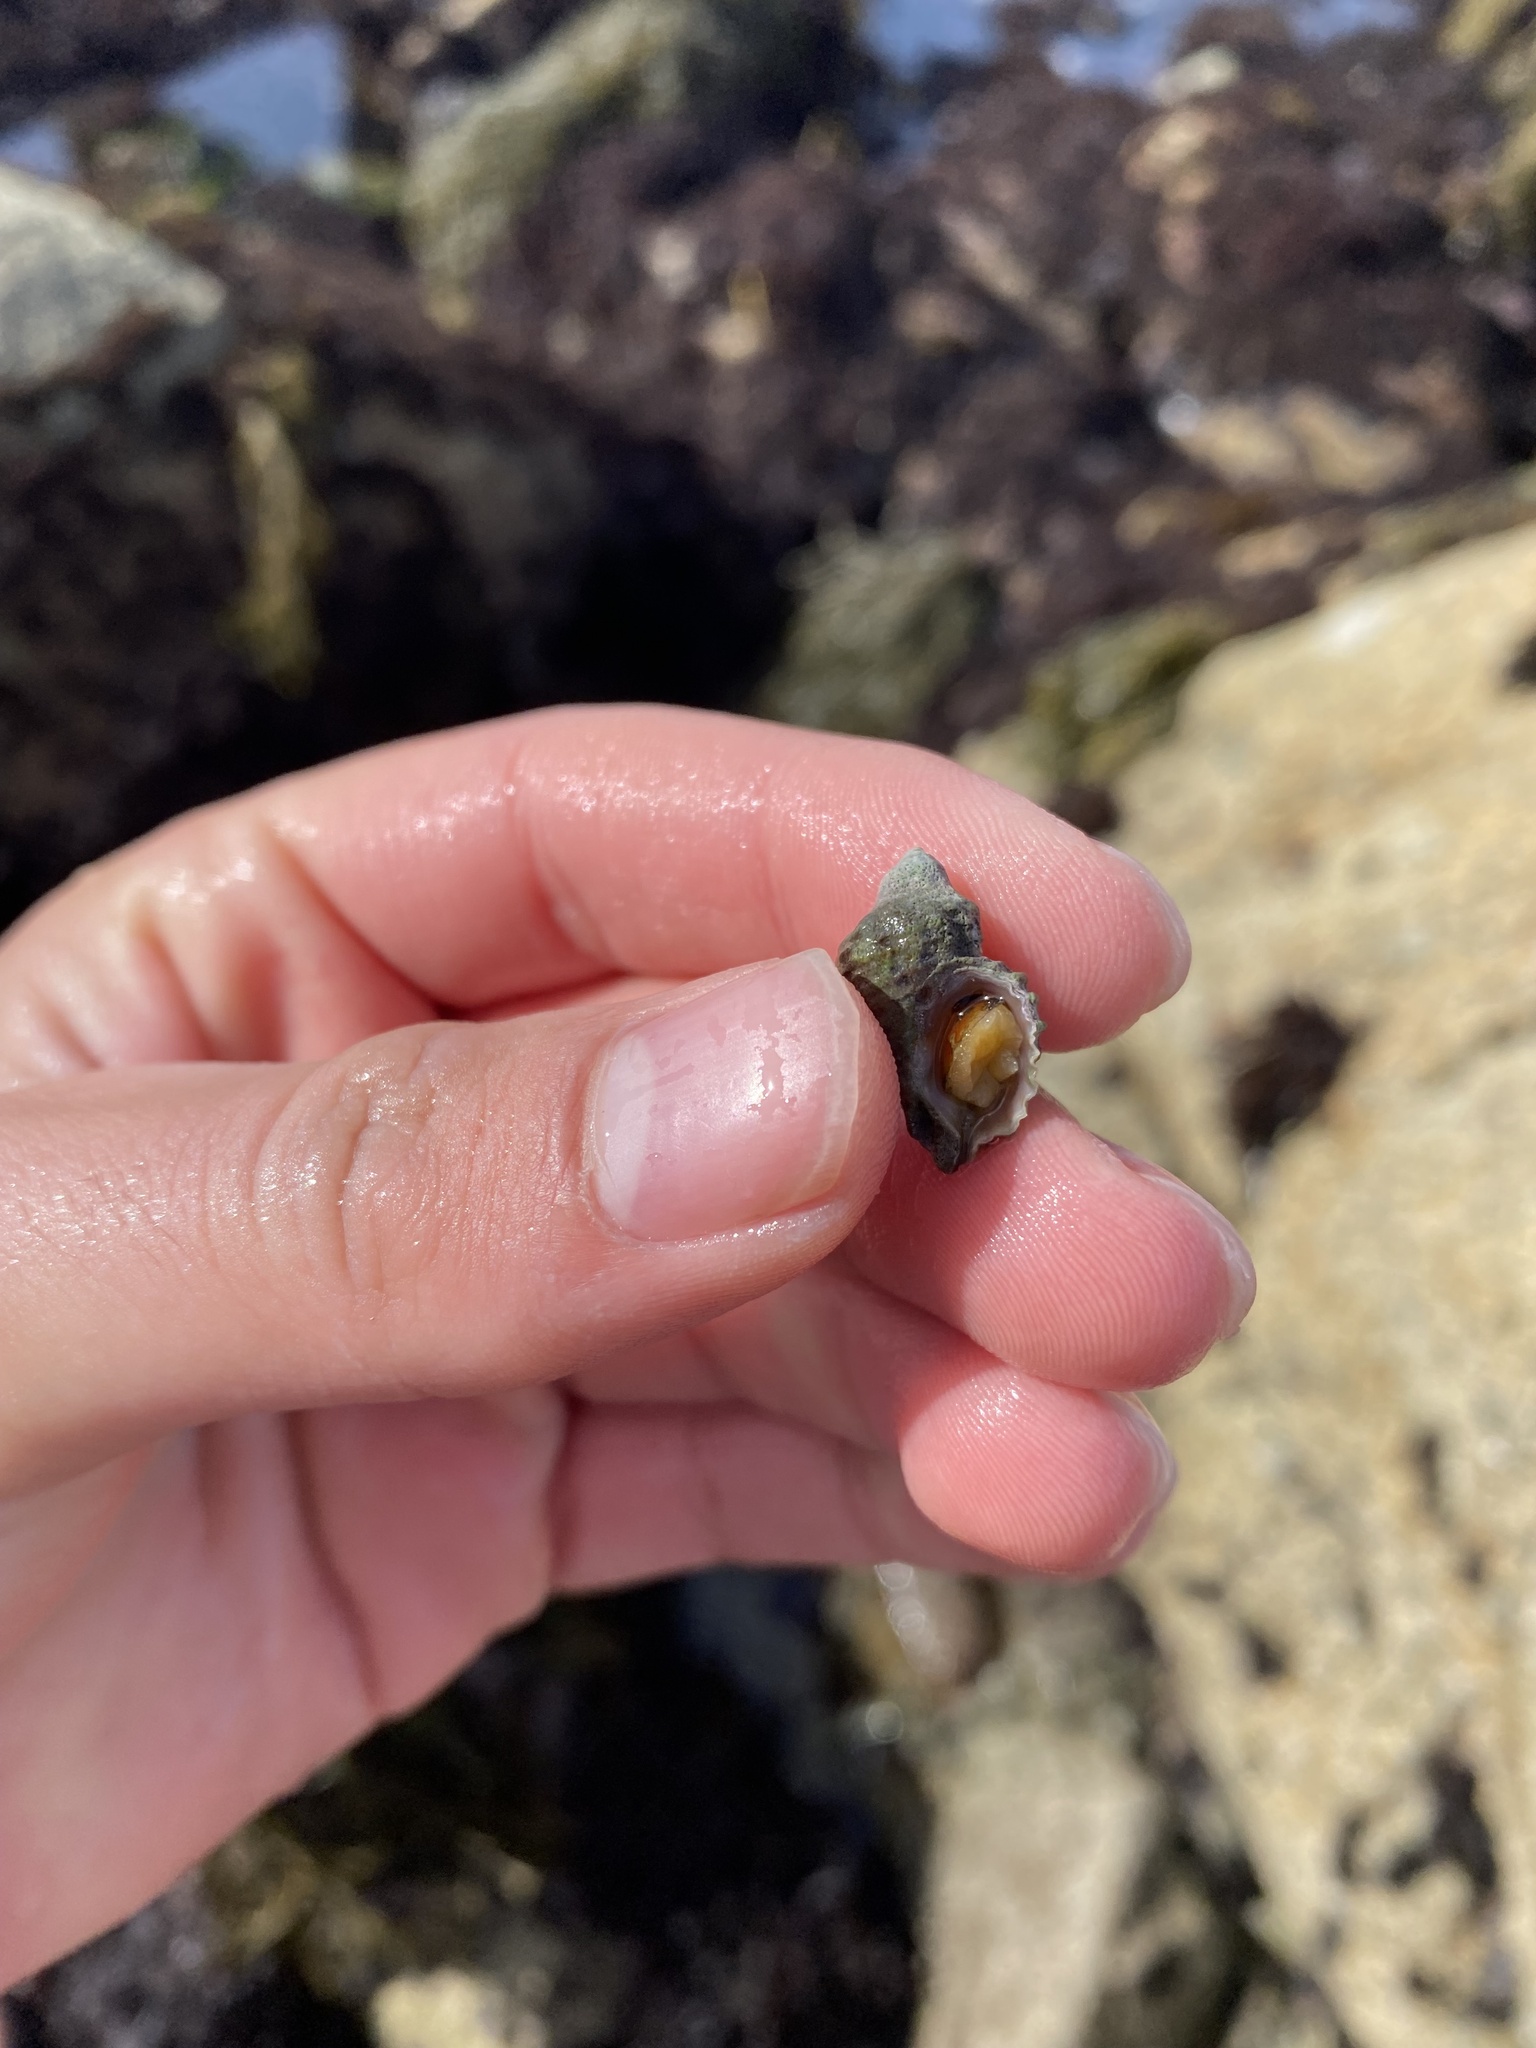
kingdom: Animalia
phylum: Mollusca
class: Gastropoda
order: Neogastropoda
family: Muricidae
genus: Paciocinebrina
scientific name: Paciocinebrina circumtexta
